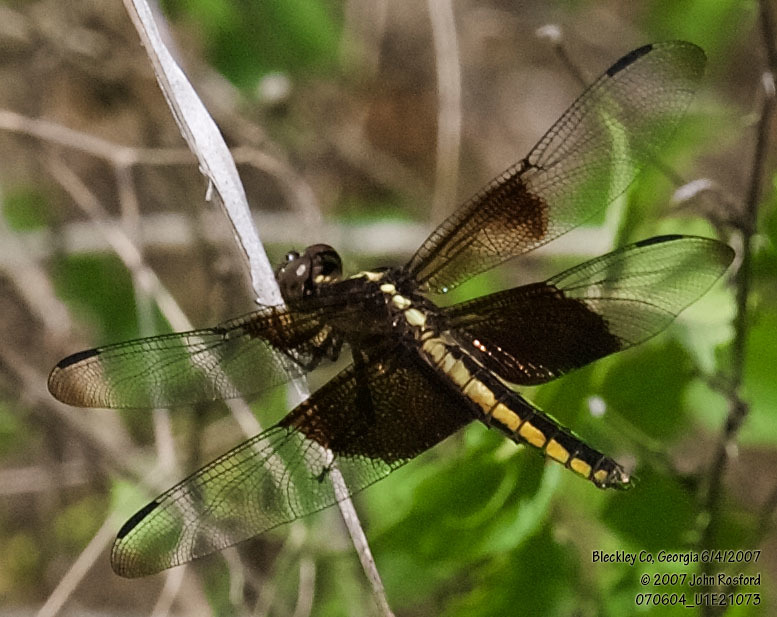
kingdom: Animalia
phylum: Arthropoda
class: Insecta
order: Odonata
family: Libellulidae
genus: Libellula
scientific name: Libellula luctuosa
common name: Widow skimmer
